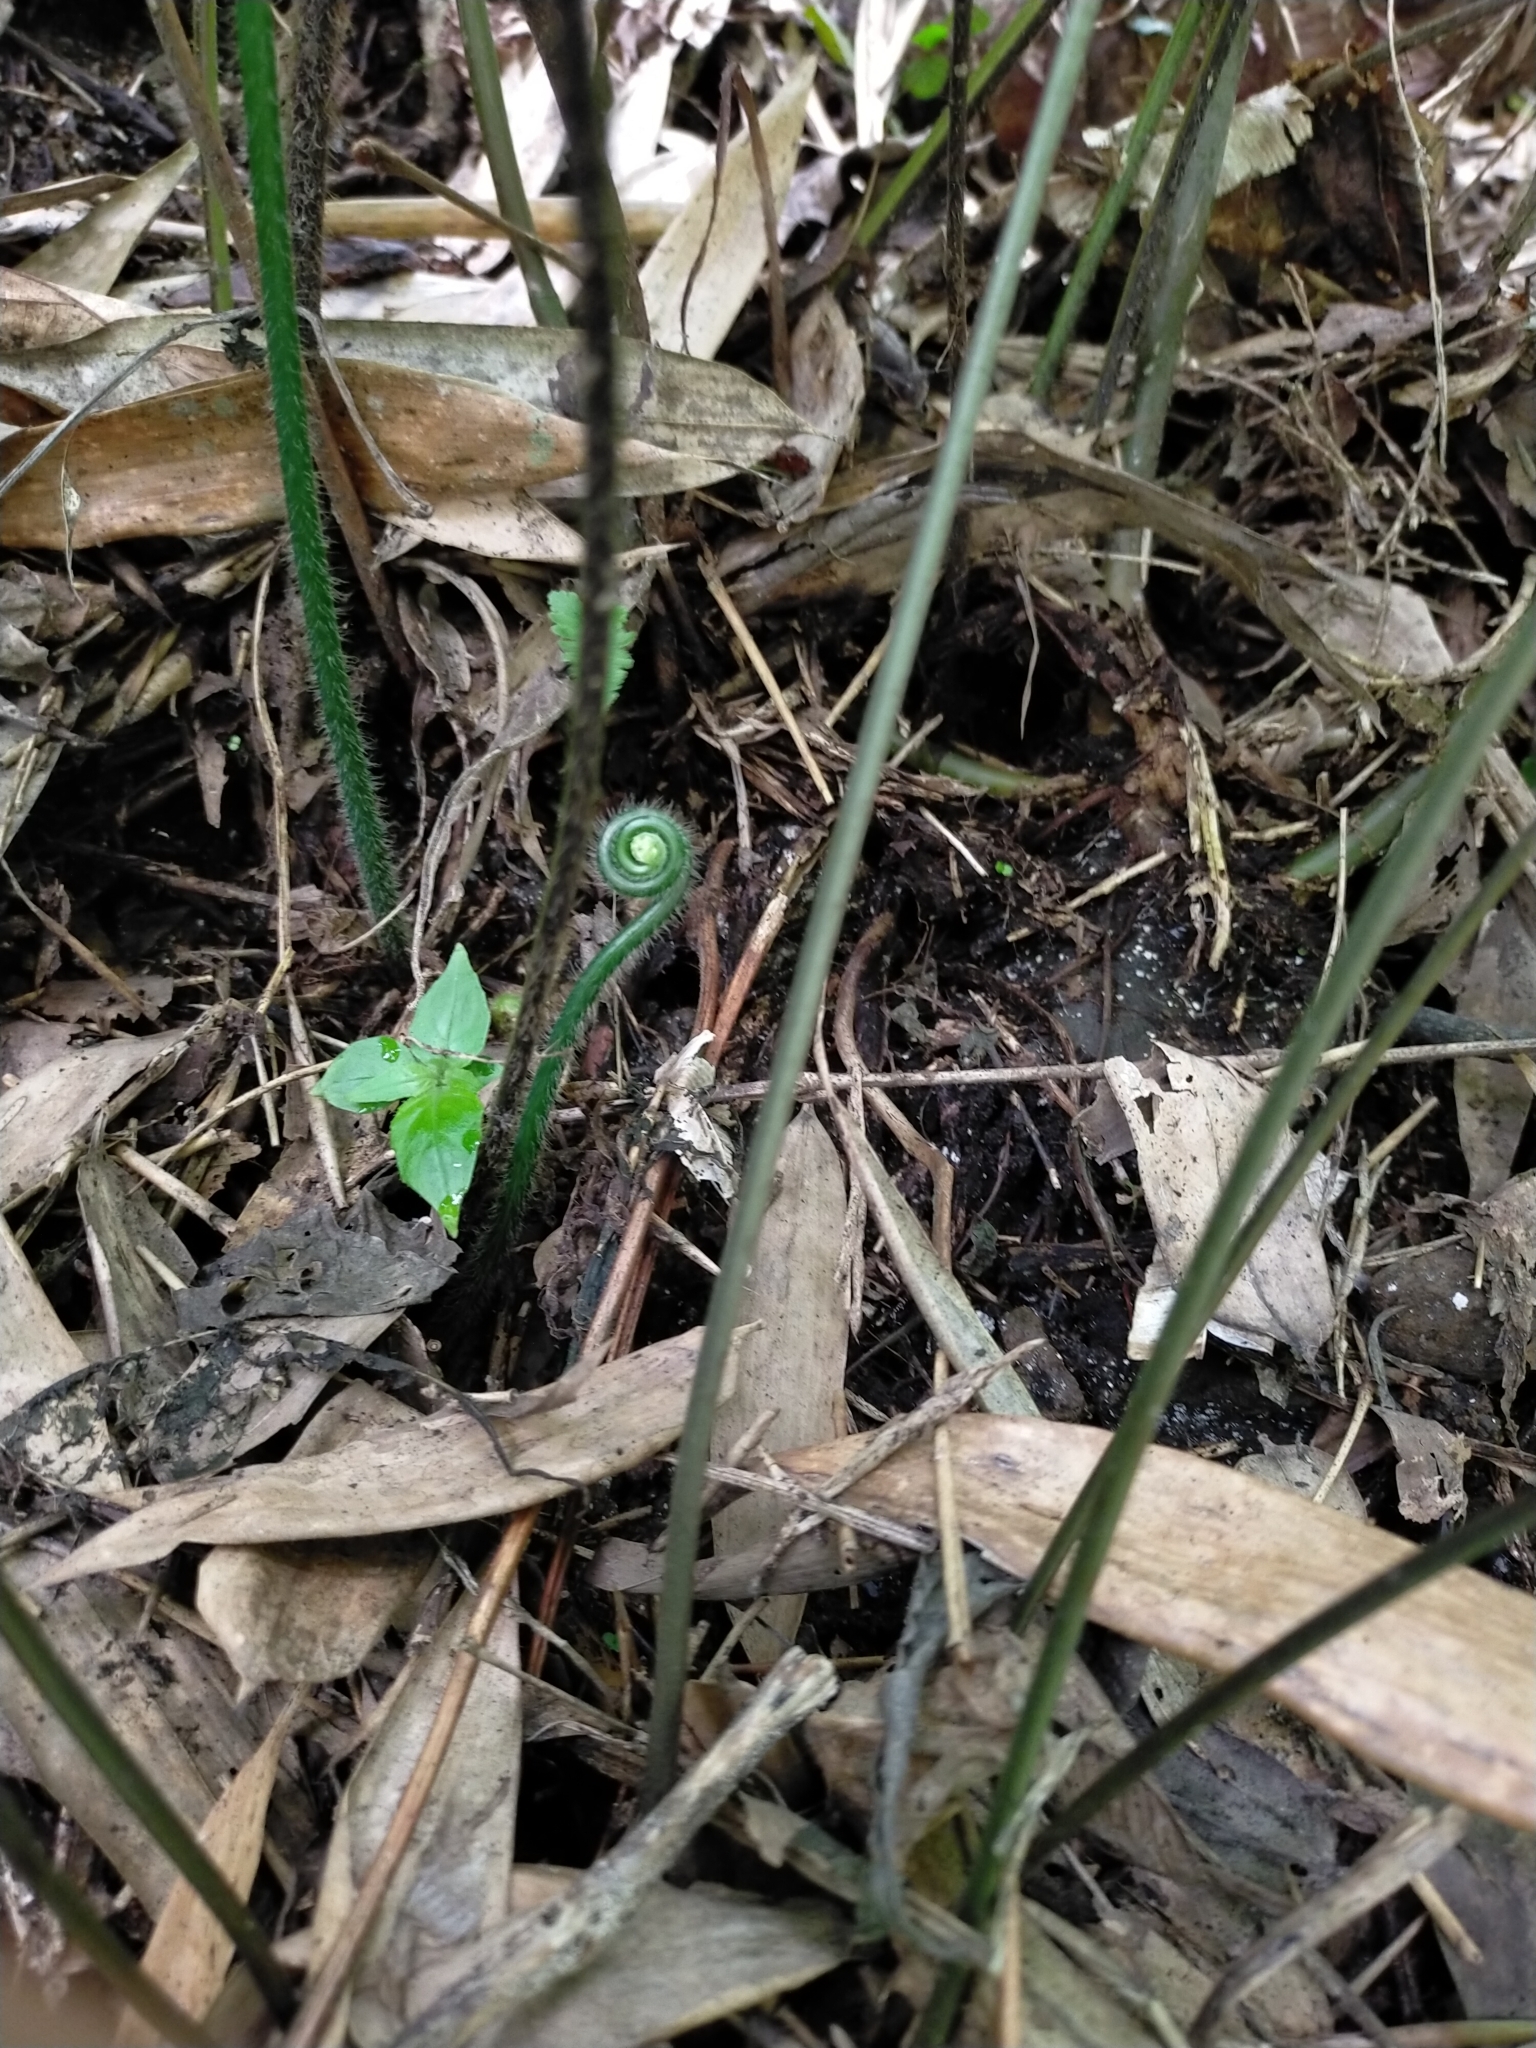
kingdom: Plantae
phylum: Tracheophyta
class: Polypodiopsida
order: Polypodiales
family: Dennstaedtiaceae
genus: Microlepia
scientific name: Microlepia strigosa
